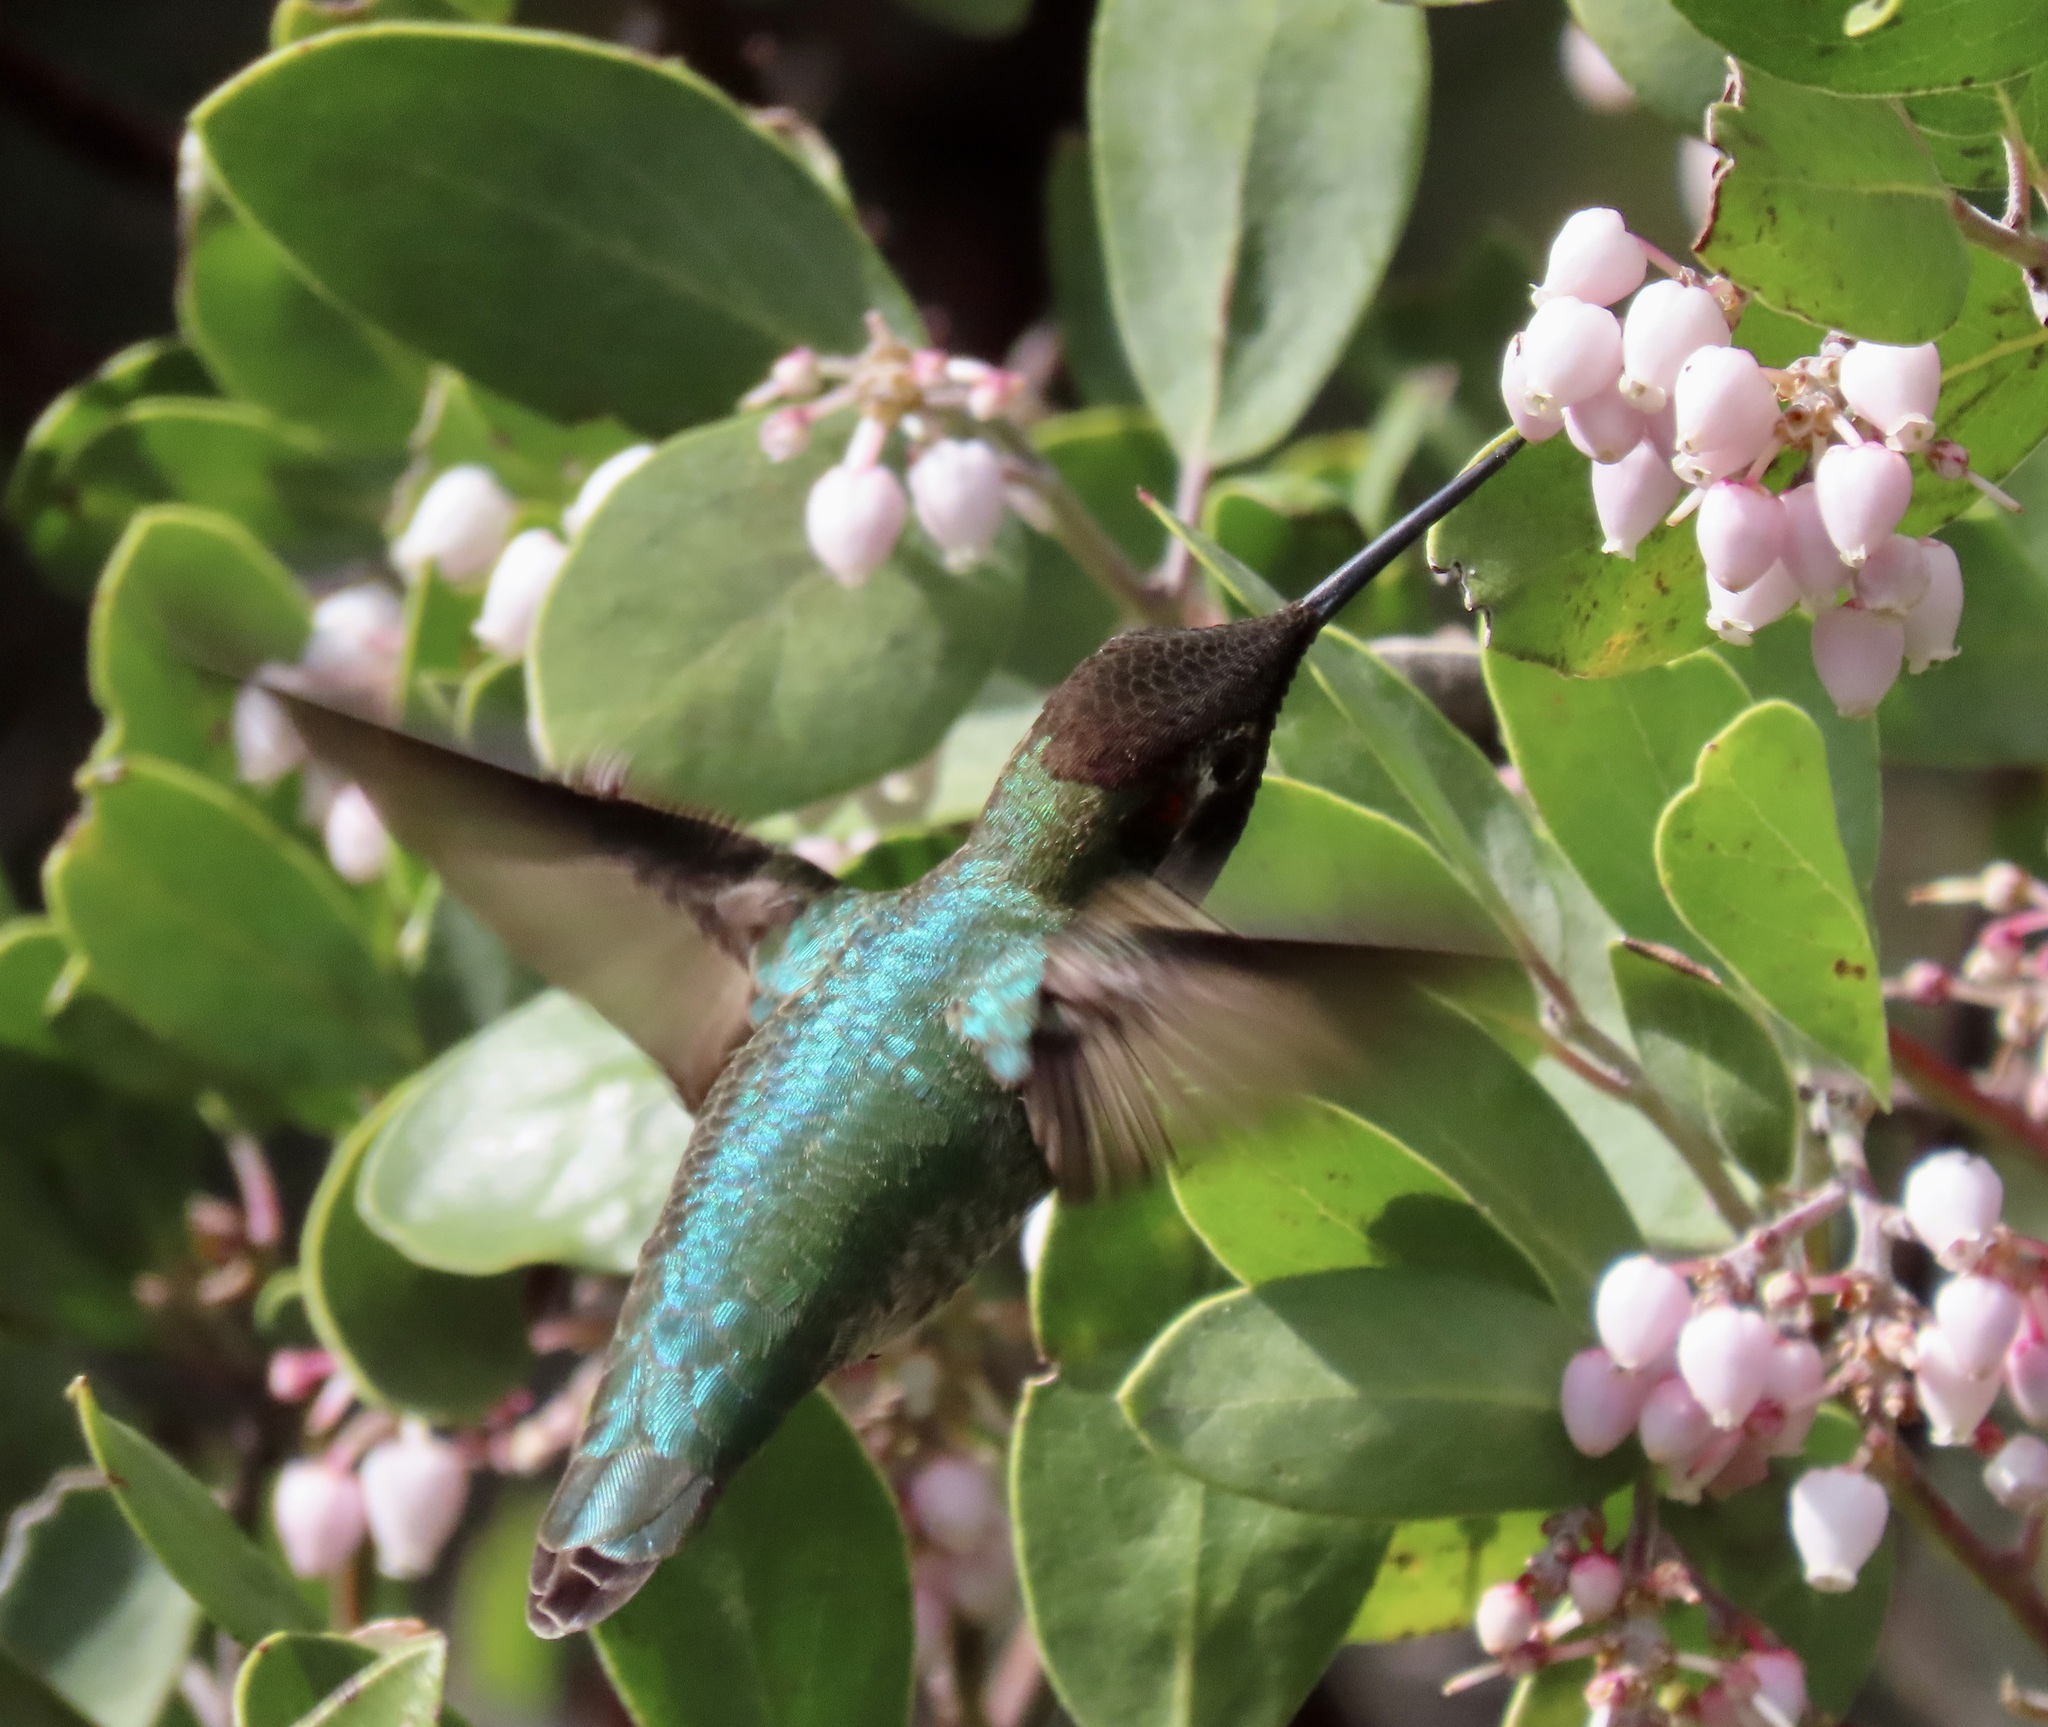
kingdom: Animalia
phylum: Chordata
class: Aves
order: Apodiformes
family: Trochilidae
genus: Calypte
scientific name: Calypte anna
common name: Anna's hummingbird
